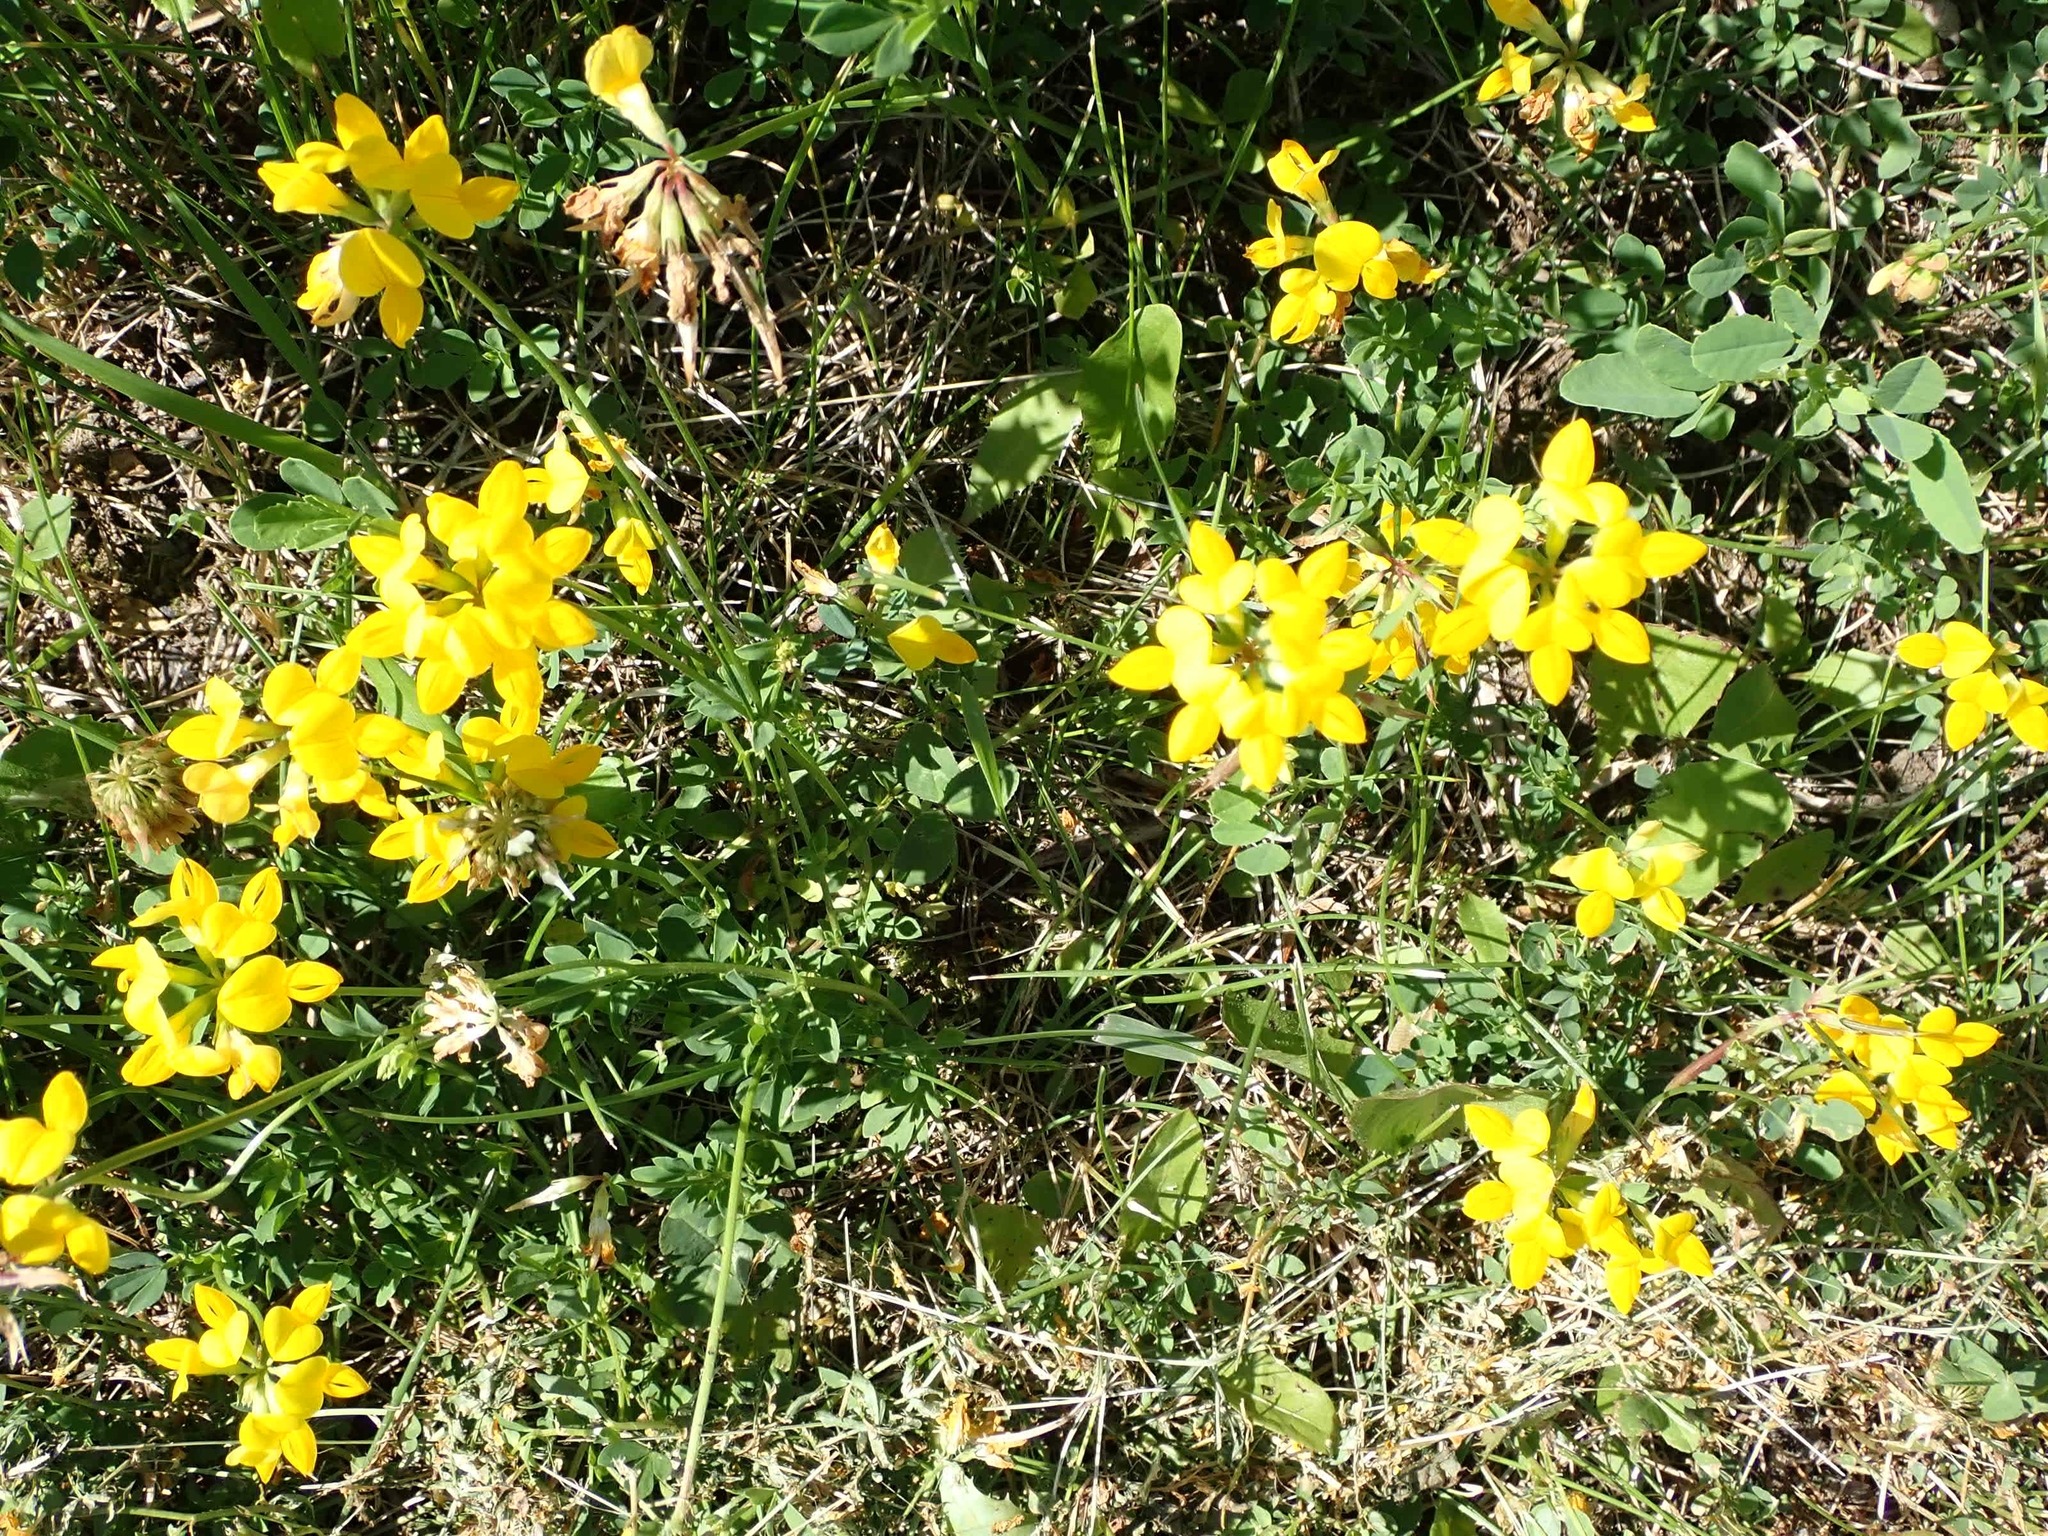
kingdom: Plantae
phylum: Tracheophyta
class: Magnoliopsida
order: Fabales
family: Fabaceae
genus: Lotus
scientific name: Lotus corniculatus
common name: Common bird's-foot-trefoil
